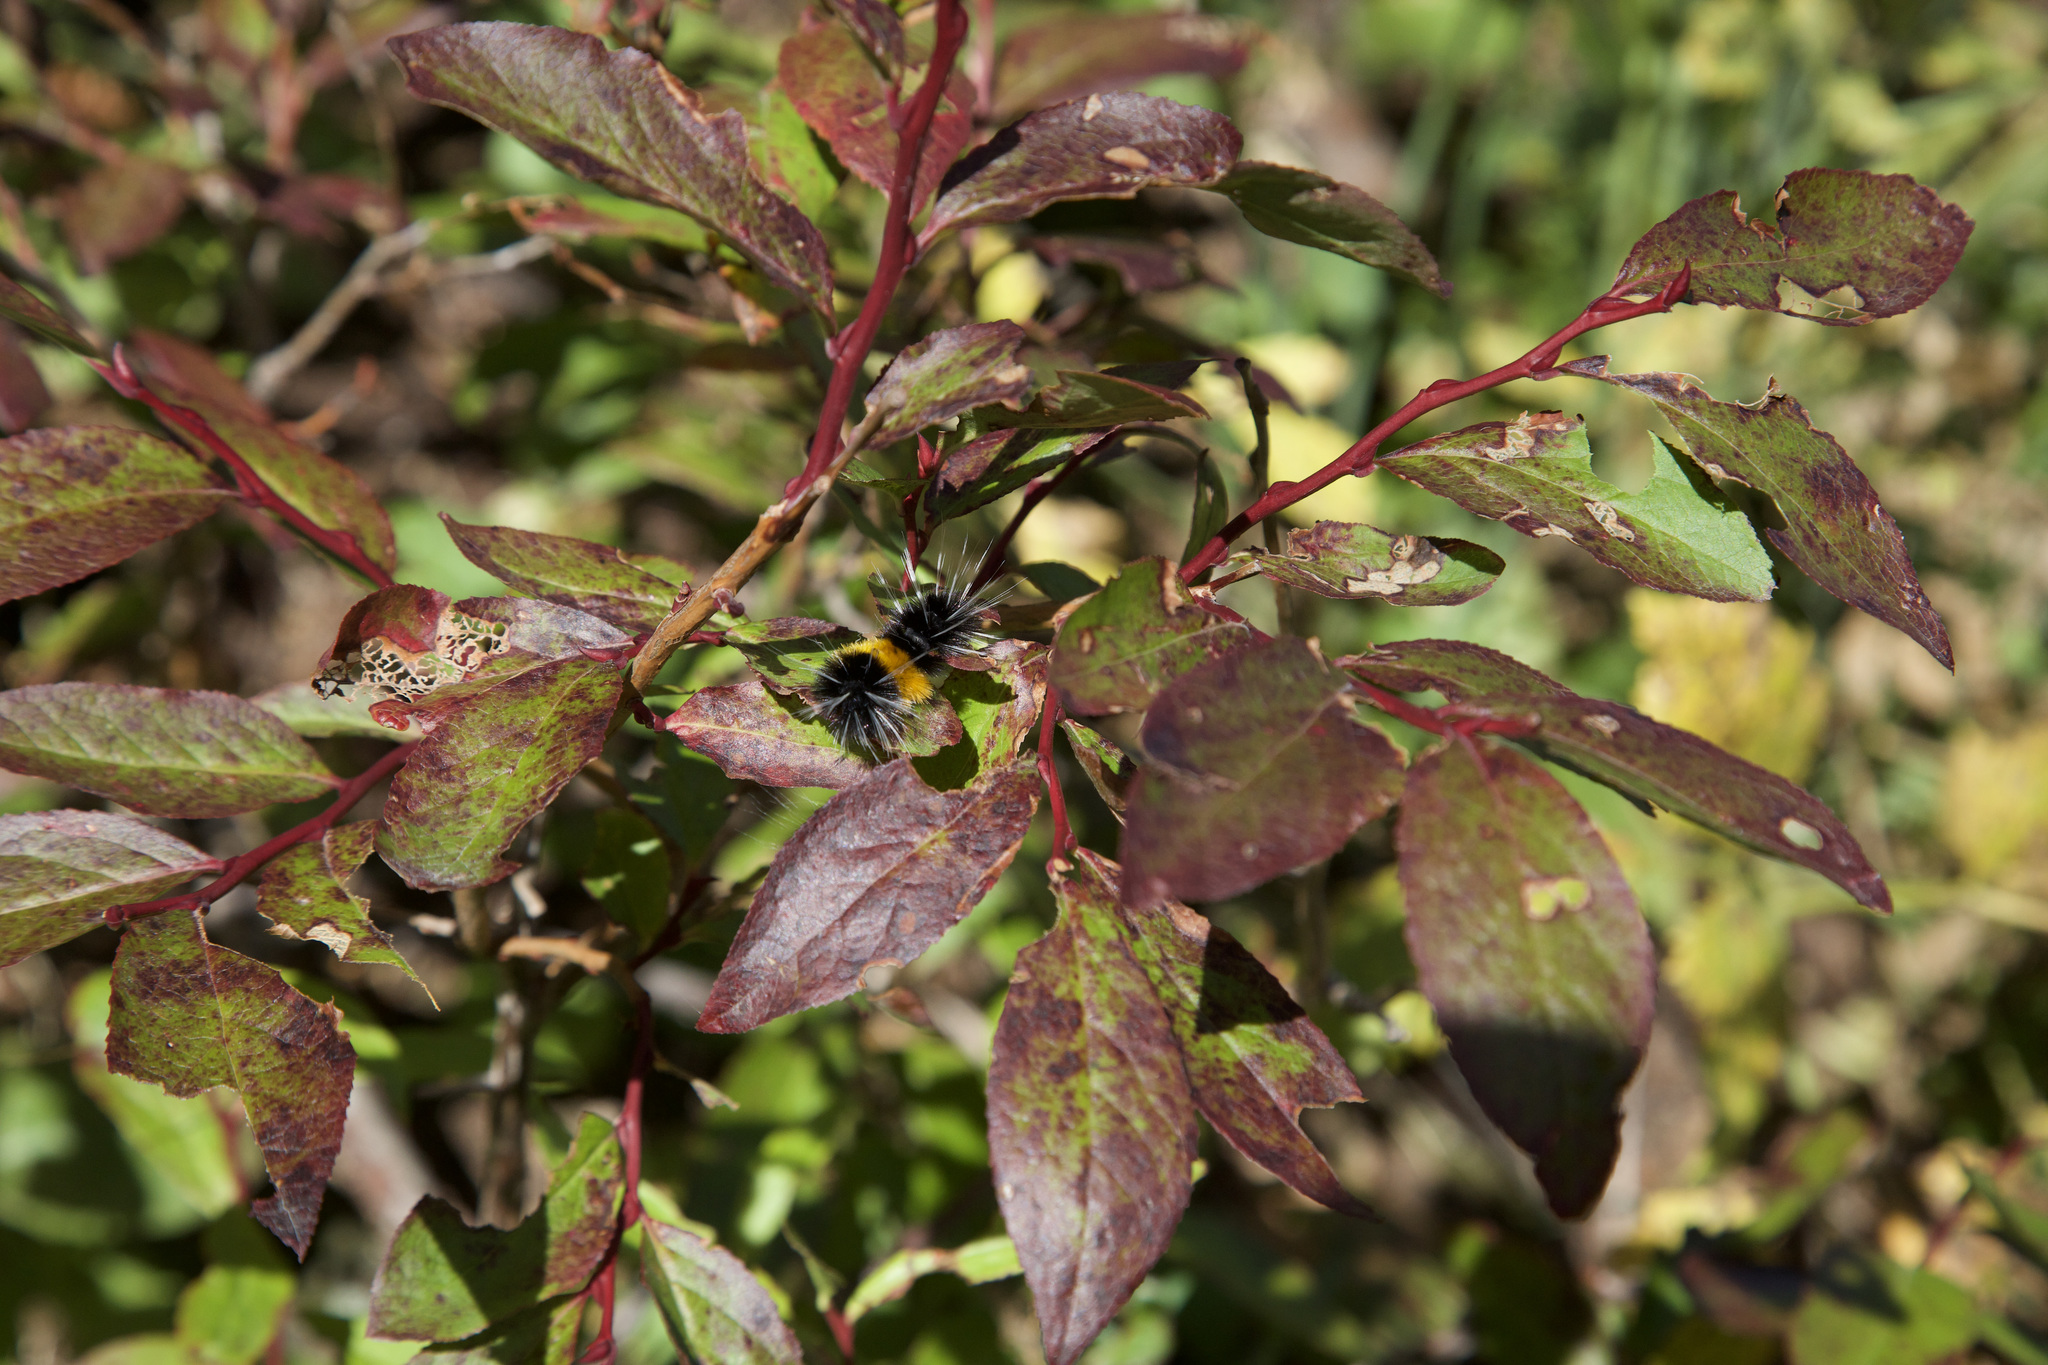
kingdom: Animalia
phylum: Arthropoda
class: Insecta
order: Lepidoptera
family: Erebidae
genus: Lophocampa
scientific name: Lophocampa maculata
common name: Spotted tussock moth
